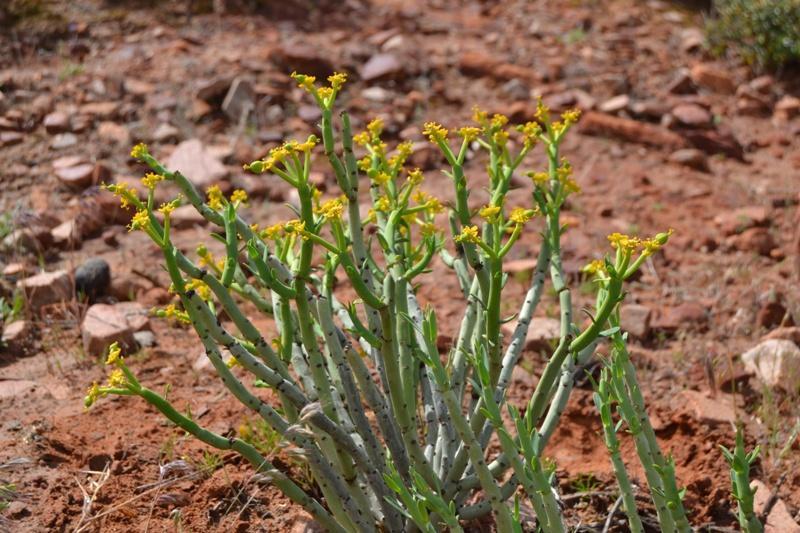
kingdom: Plantae
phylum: Tracheophyta
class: Magnoliopsida
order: Malpighiales
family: Euphorbiaceae
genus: Euphorbia
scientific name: Euphorbia mauritanica
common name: Jackal's-food
